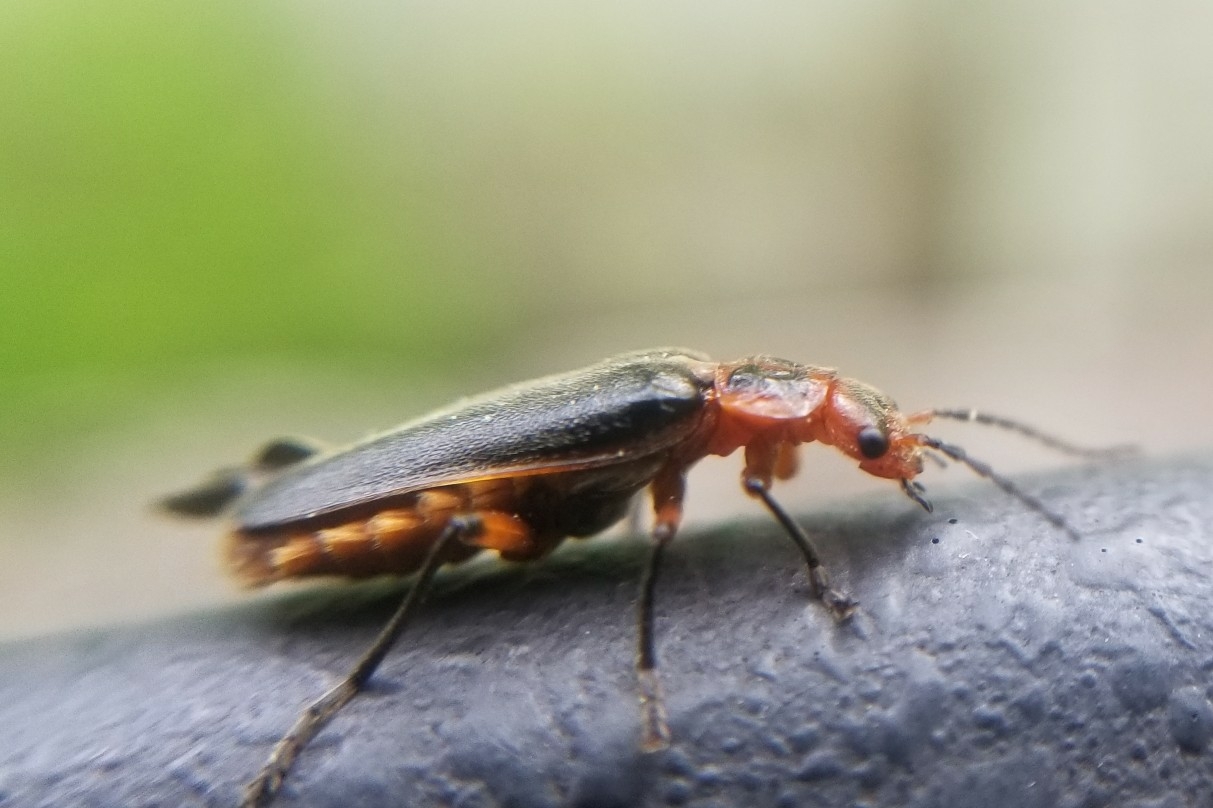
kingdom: Animalia
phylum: Arthropoda
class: Insecta
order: Coleoptera
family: Cantharidae
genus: Atalantycha
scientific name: Atalantycha bilineata
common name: Two-lined leatherwing
